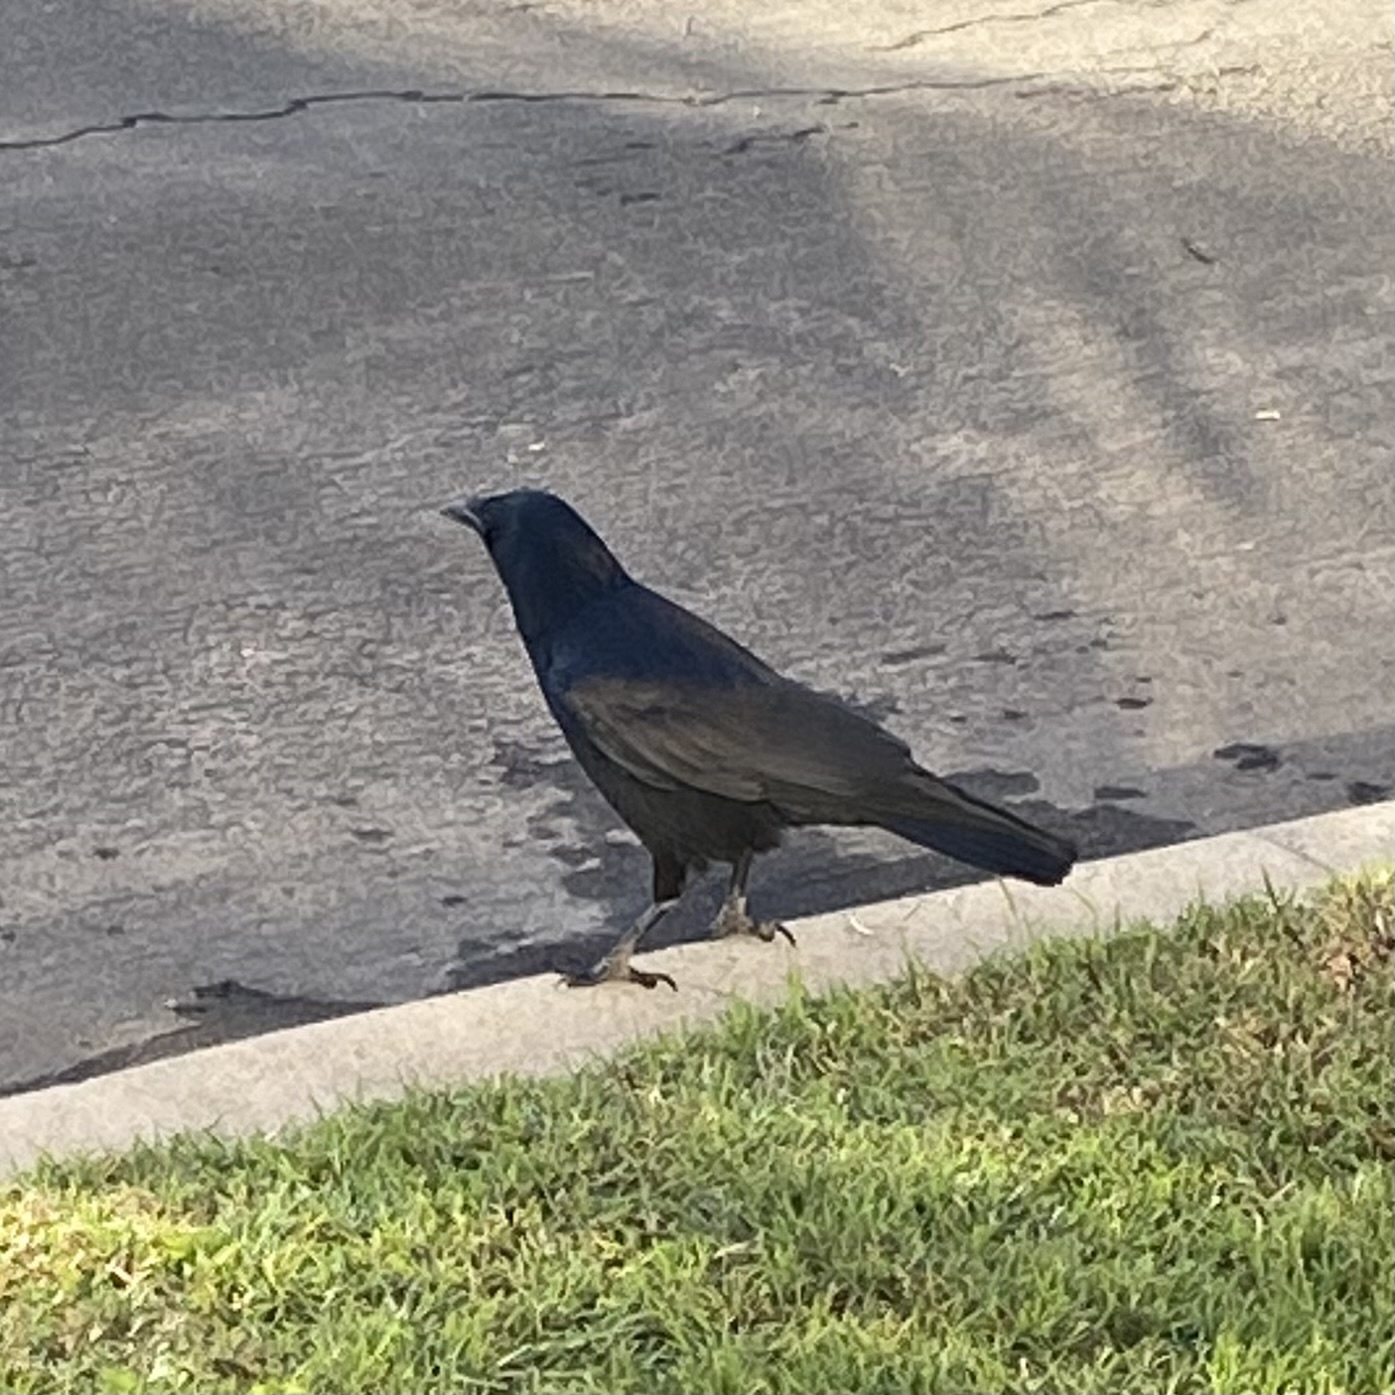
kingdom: Animalia
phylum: Chordata
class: Aves
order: Passeriformes
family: Corvidae
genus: Corvus
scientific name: Corvus brachyrhynchos
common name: American crow
